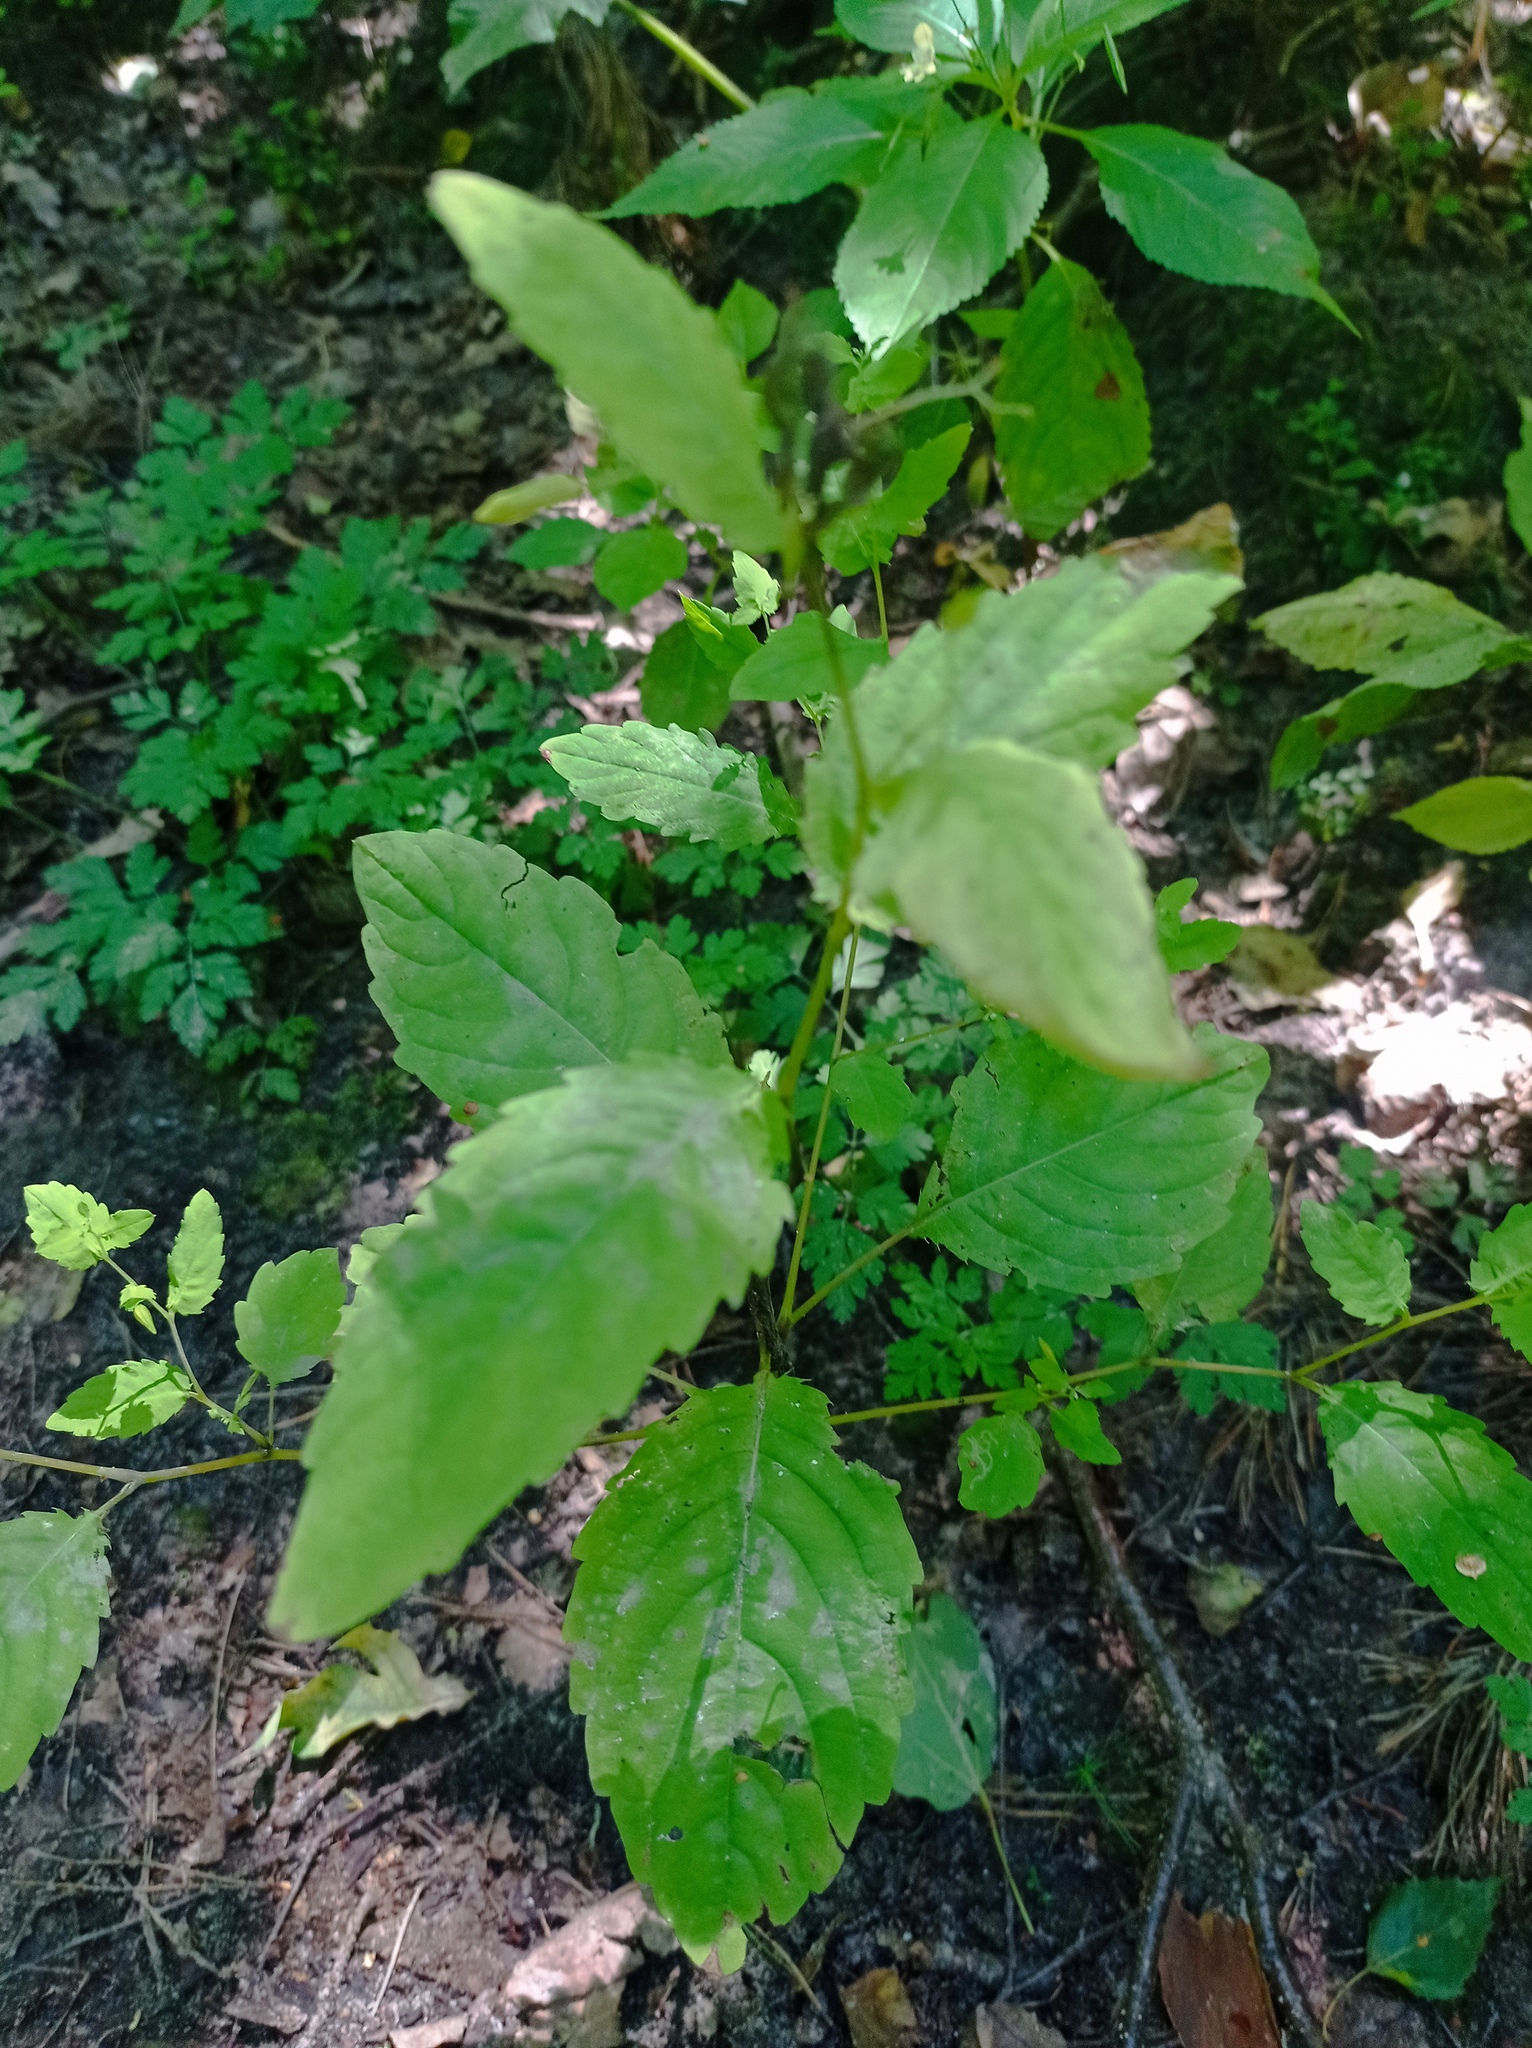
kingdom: Plantae
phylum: Tracheophyta
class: Magnoliopsida
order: Ericales
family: Balsaminaceae
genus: Impatiens
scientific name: Impatiens noli-tangere
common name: Touch-me-not balsam
